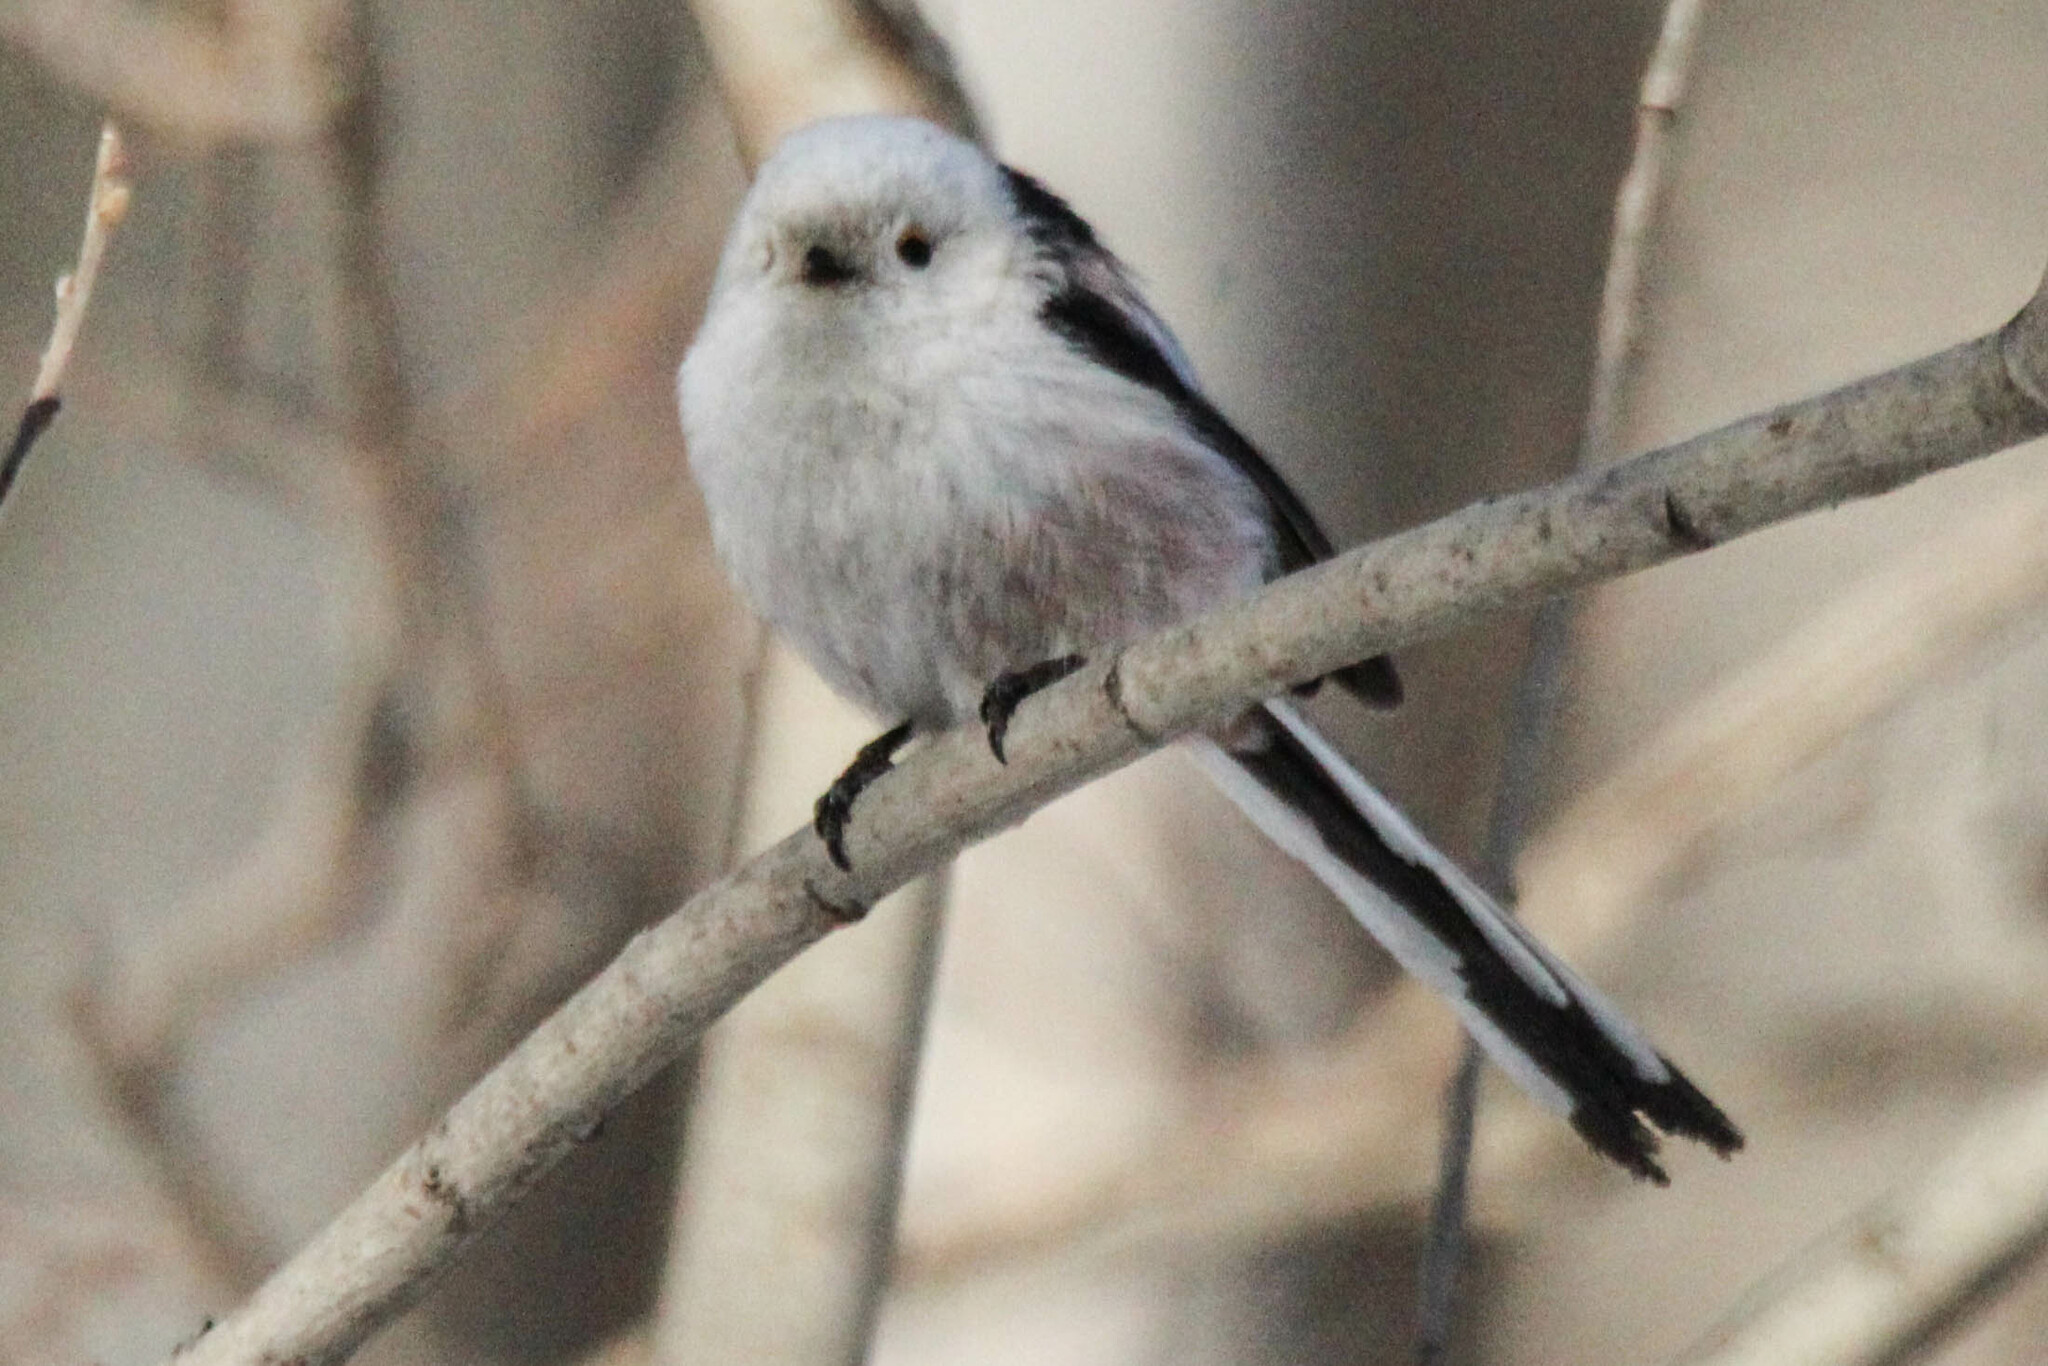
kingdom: Animalia
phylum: Chordata
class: Aves
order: Passeriformes
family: Aegithalidae
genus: Aegithalos
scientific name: Aegithalos caudatus
